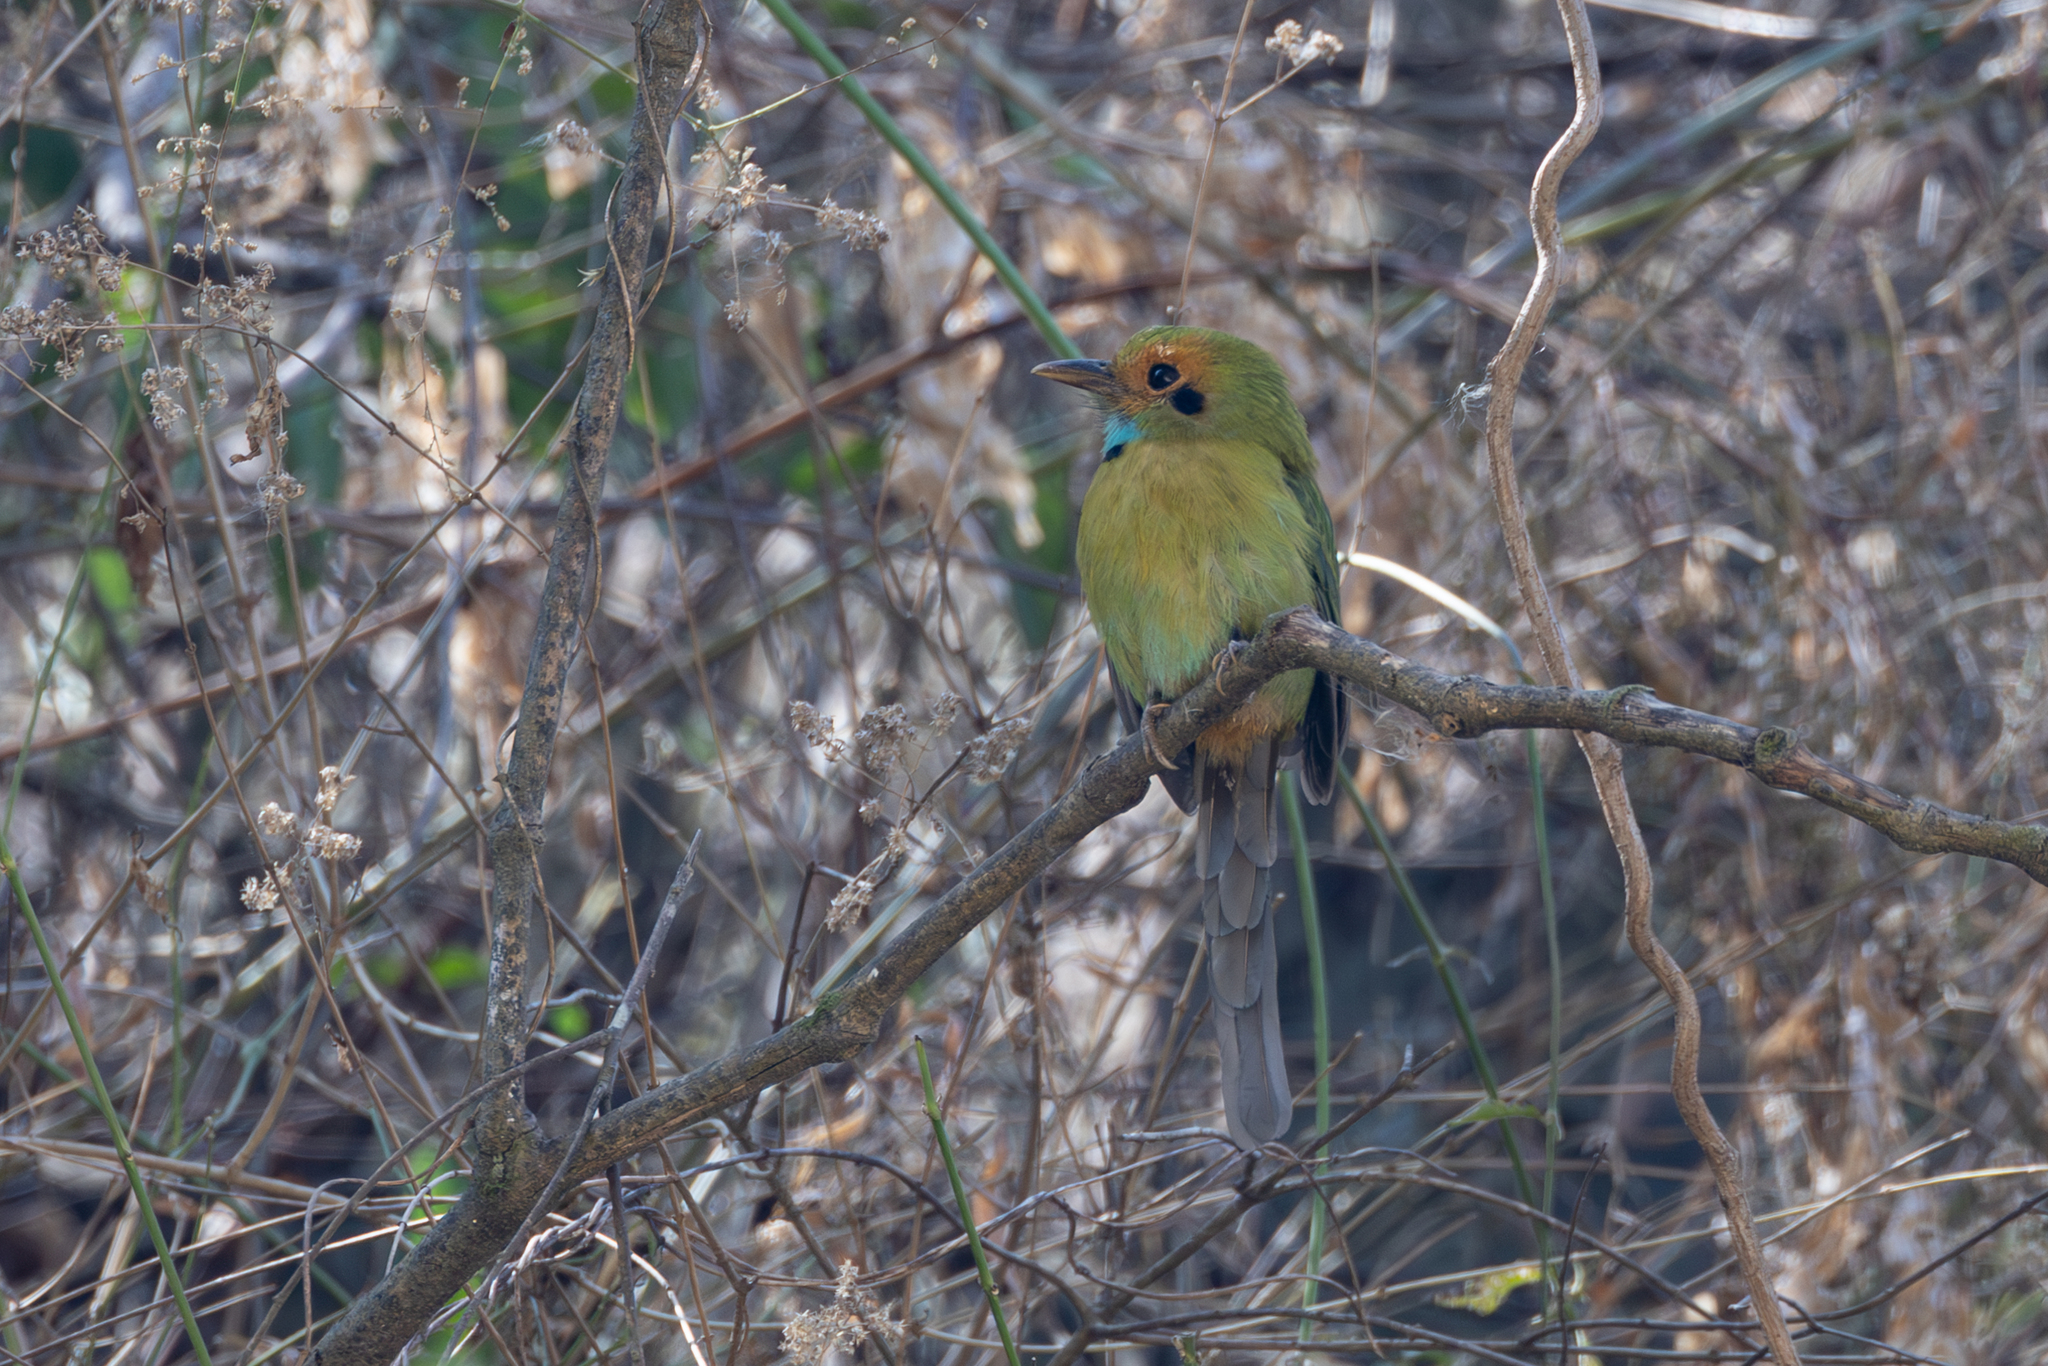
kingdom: Animalia
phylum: Chordata
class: Aves
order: Coraciiformes
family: Momotidae
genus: Aspatha
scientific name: Aspatha gularis
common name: Blue-throated motmot
